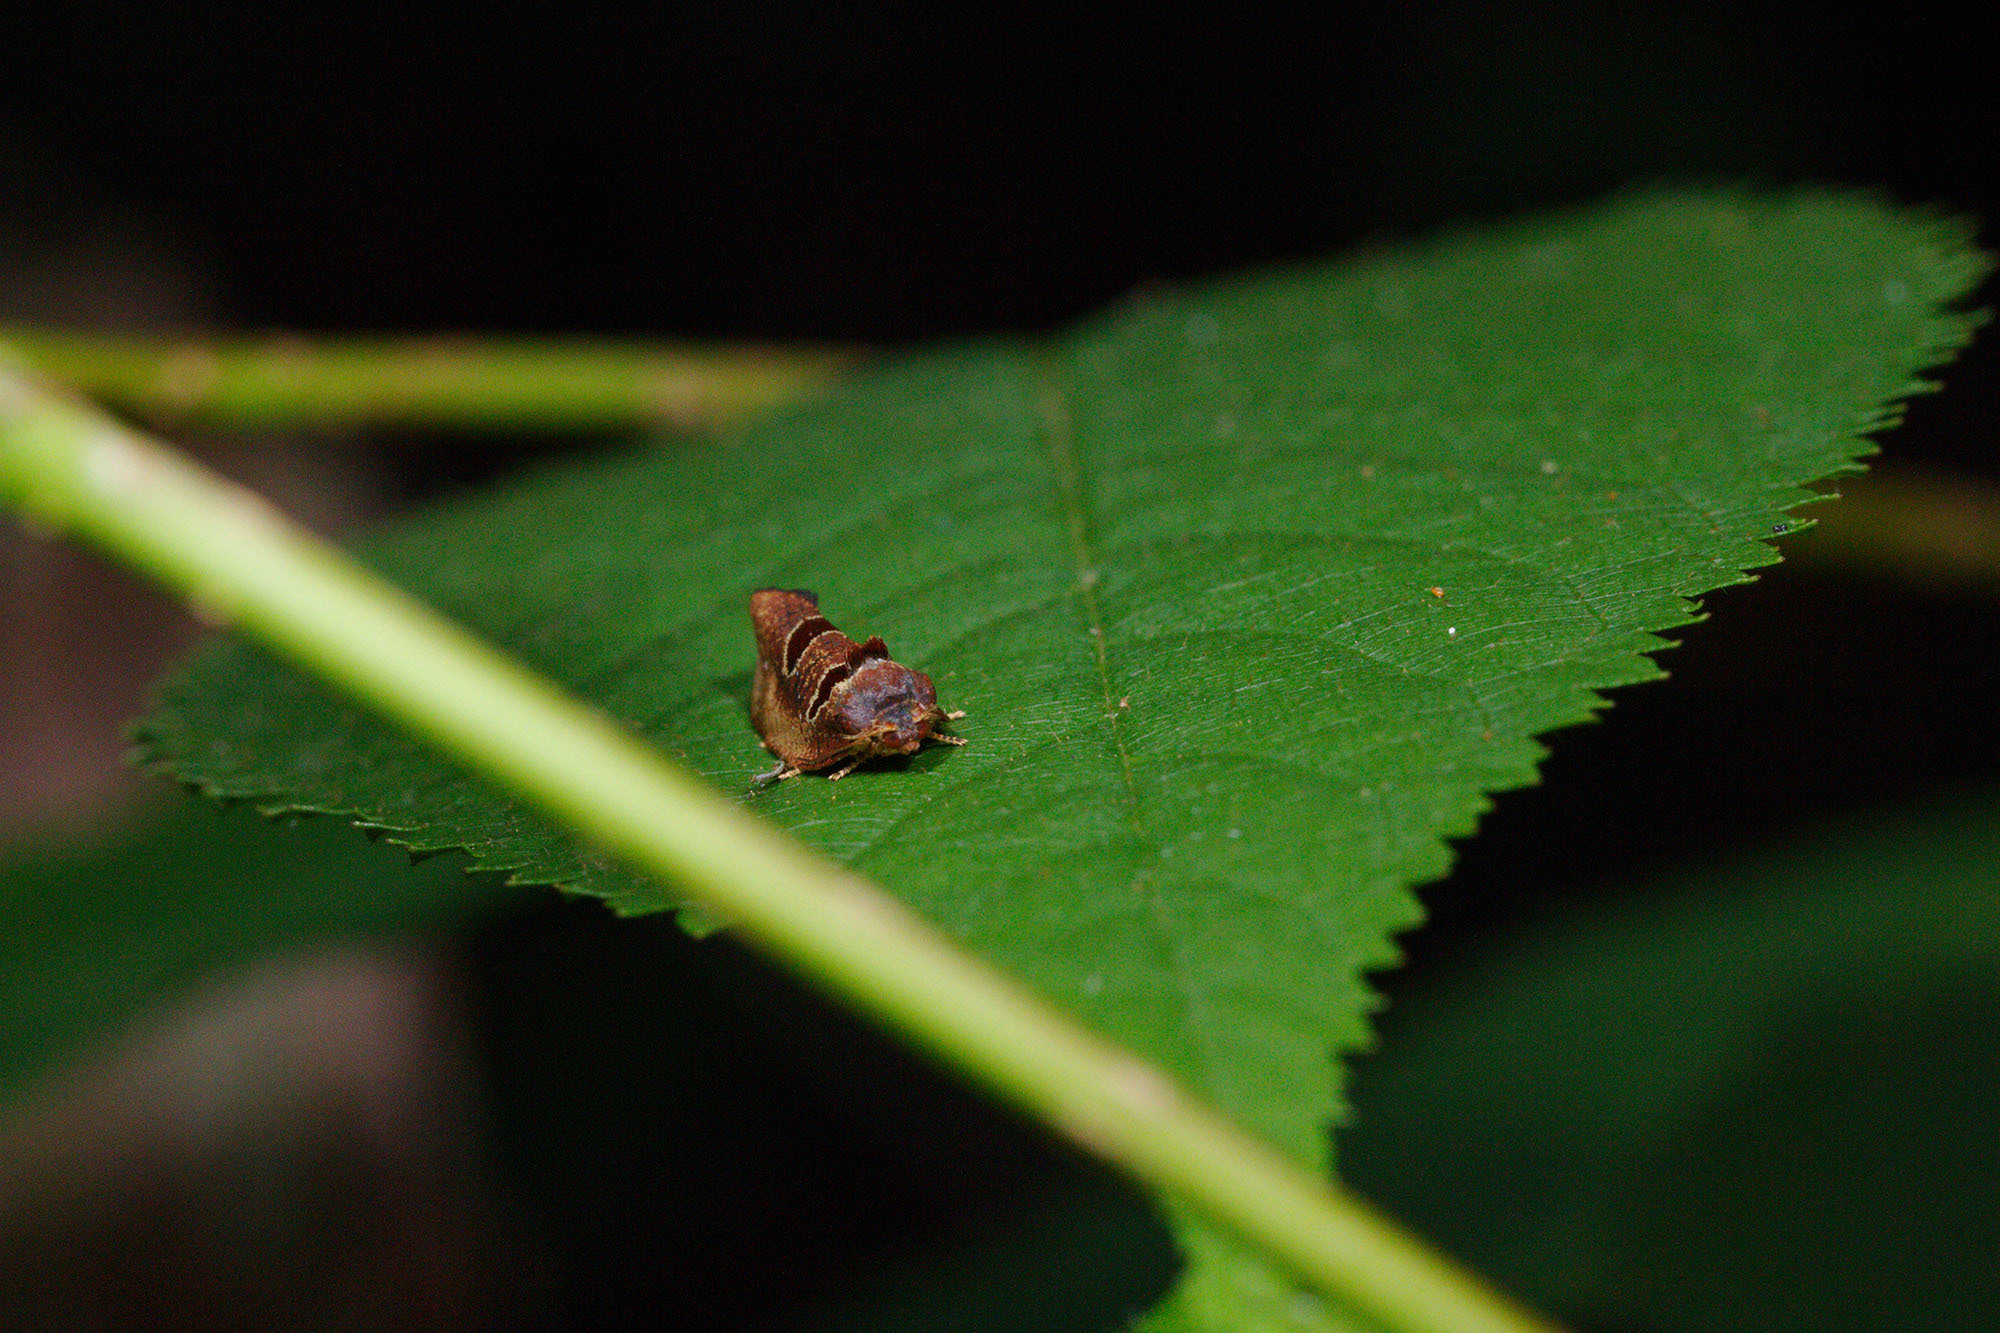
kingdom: Animalia
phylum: Arthropoda
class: Insecta
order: Lepidoptera
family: Tortricidae
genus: Ochetarcha
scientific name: Ochetarcha
